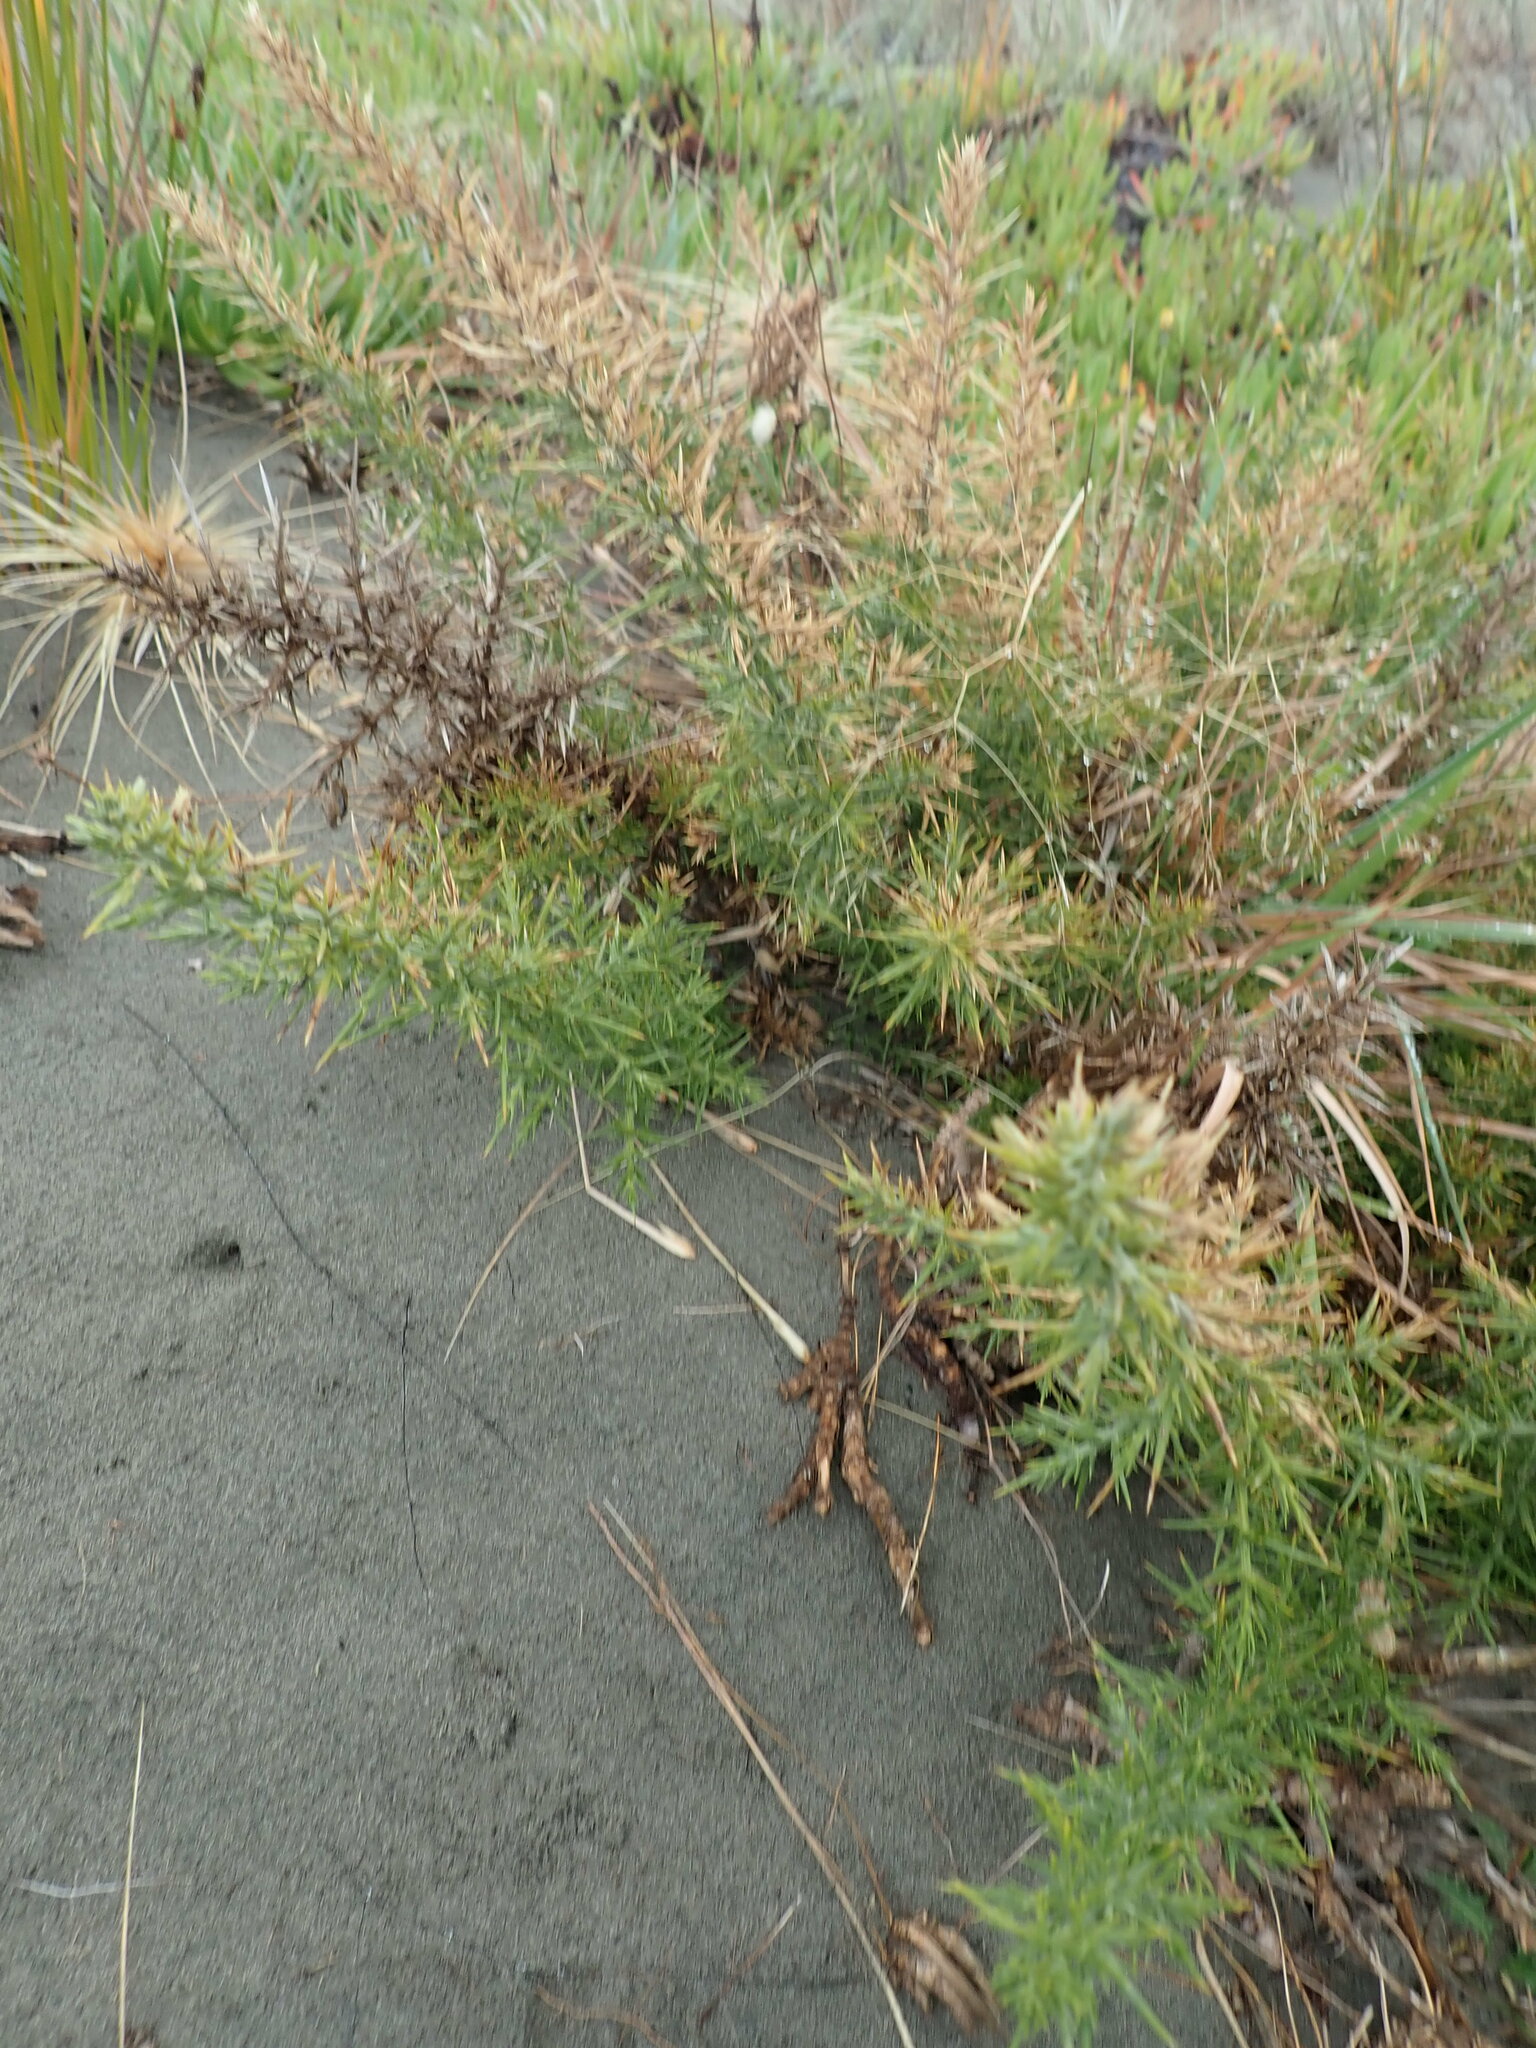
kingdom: Plantae
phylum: Tracheophyta
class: Magnoliopsida
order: Fabales
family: Fabaceae
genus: Ulex
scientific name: Ulex europaeus
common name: Common gorse
